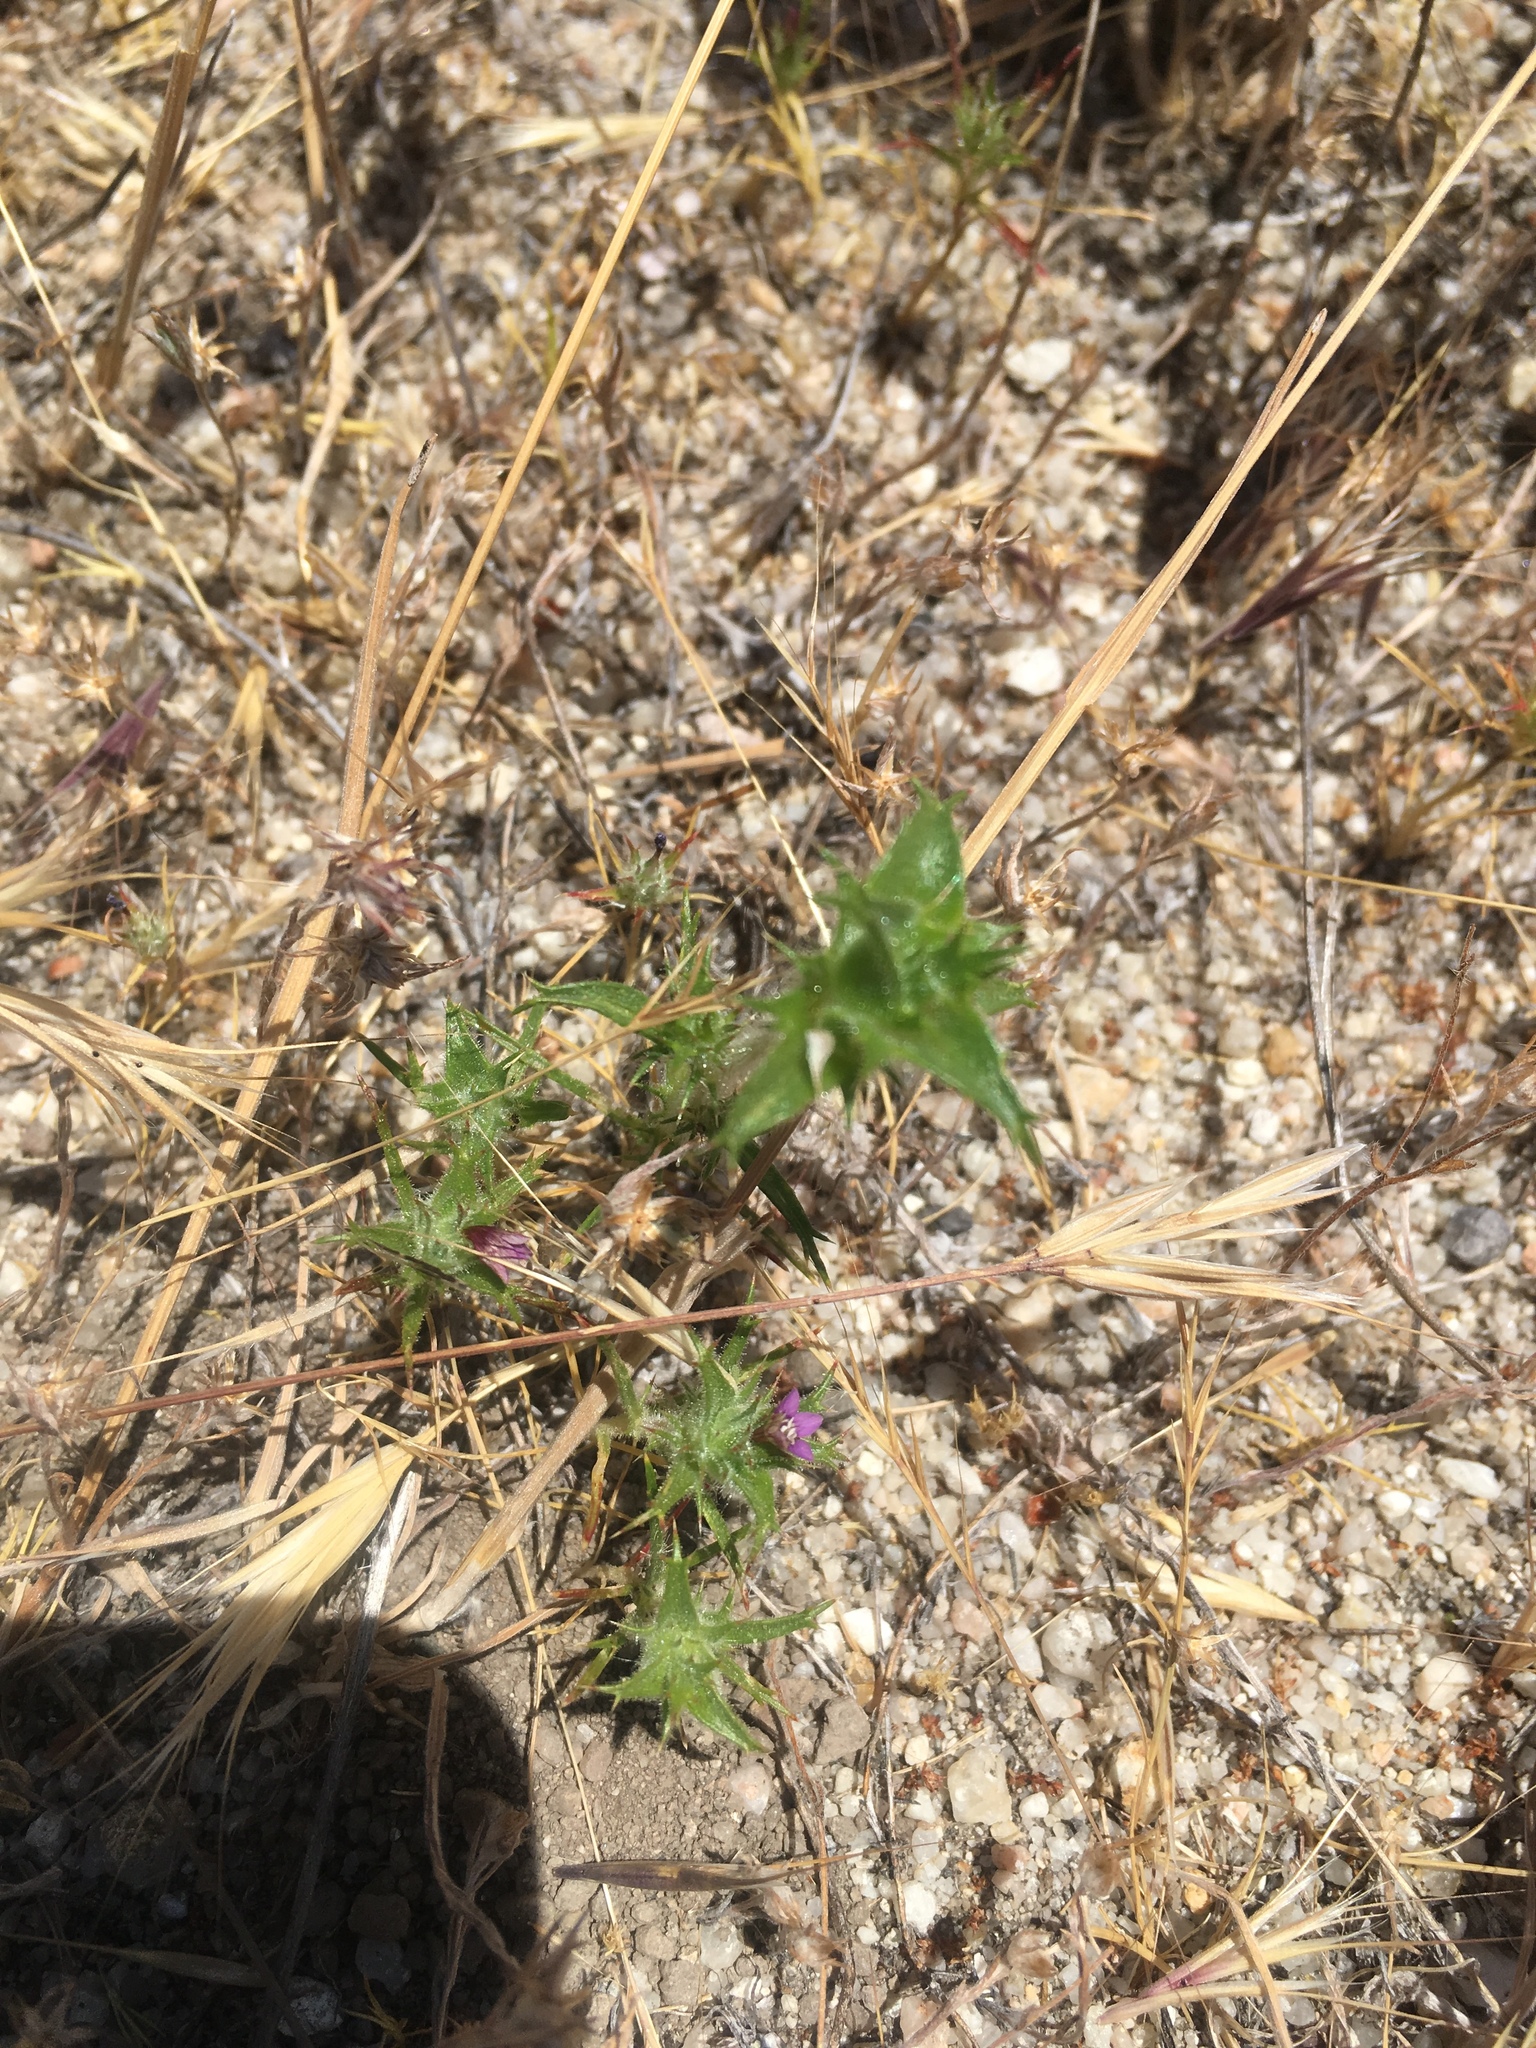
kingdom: Plantae
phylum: Tracheophyta
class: Magnoliopsida
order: Ericales
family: Polemoniaceae
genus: Navarretia
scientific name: Navarretia atractyloides
